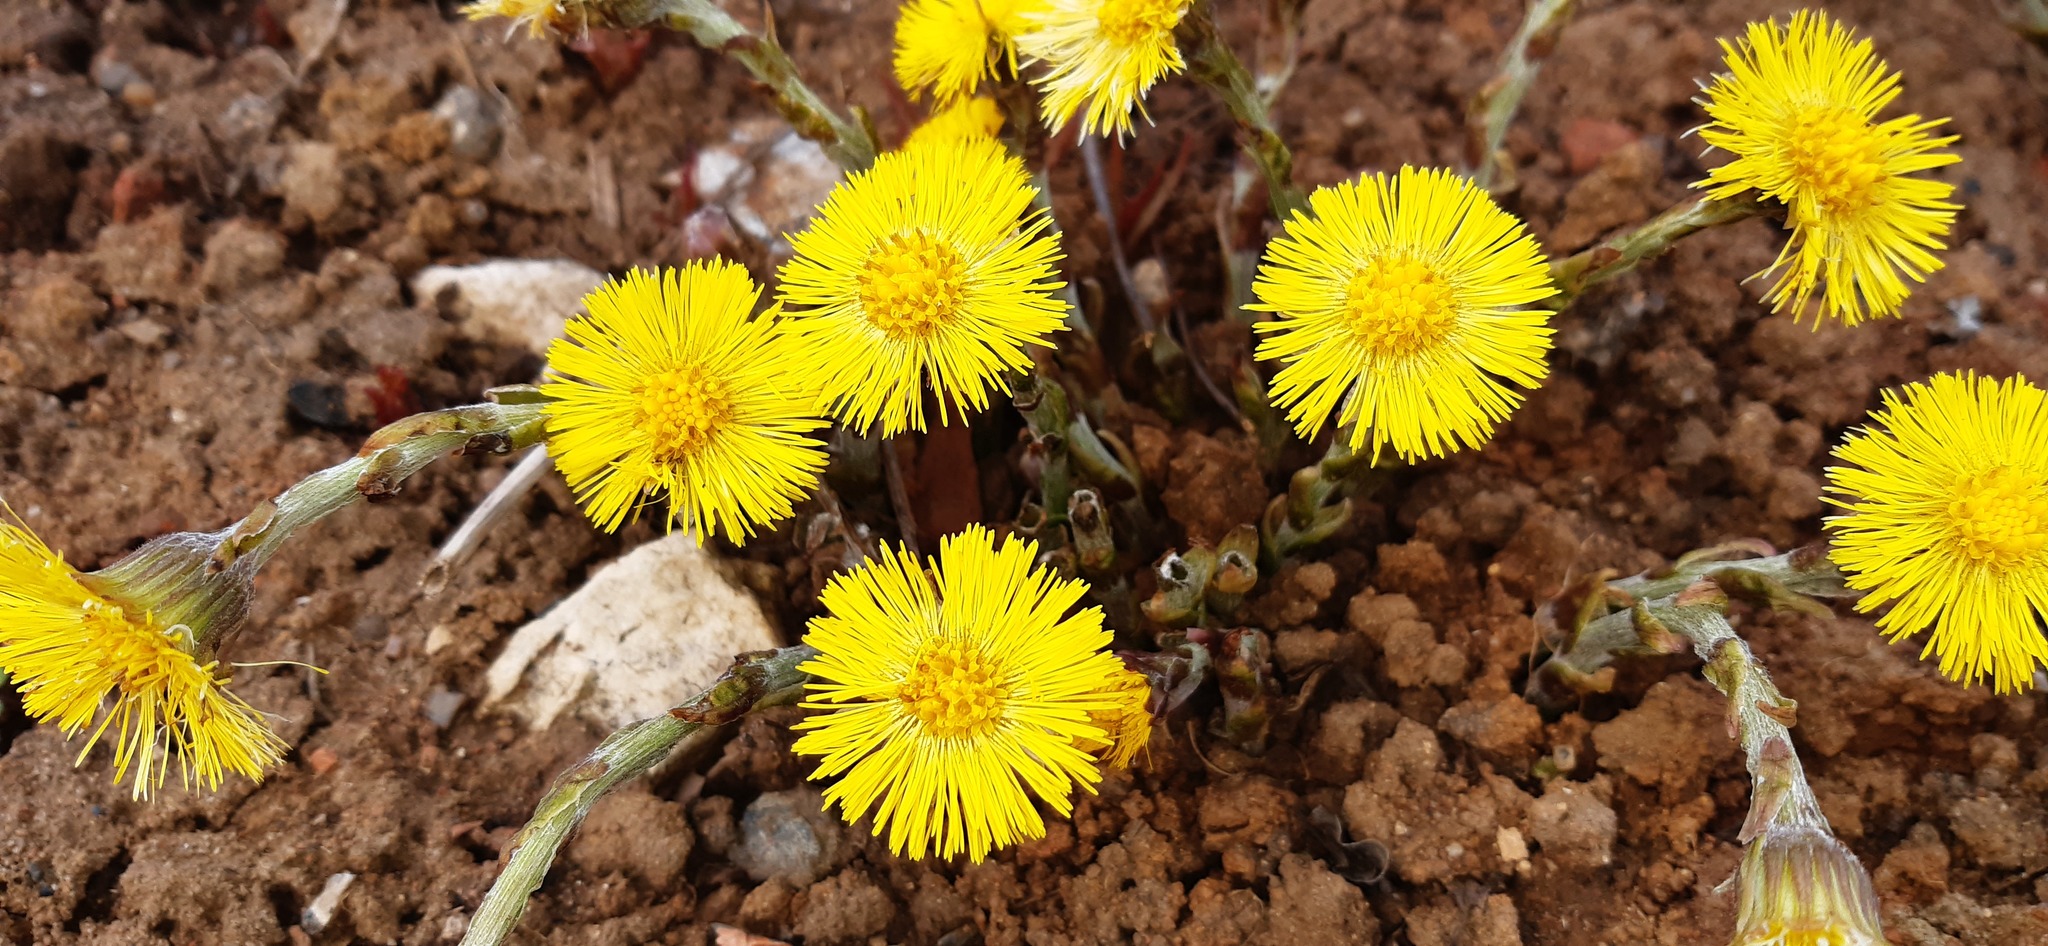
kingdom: Plantae
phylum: Tracheophyta
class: Magnoliopsida
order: Asterales
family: Asteraceae
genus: Tussilago
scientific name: Tussilago farfara
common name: Coltsfoot
